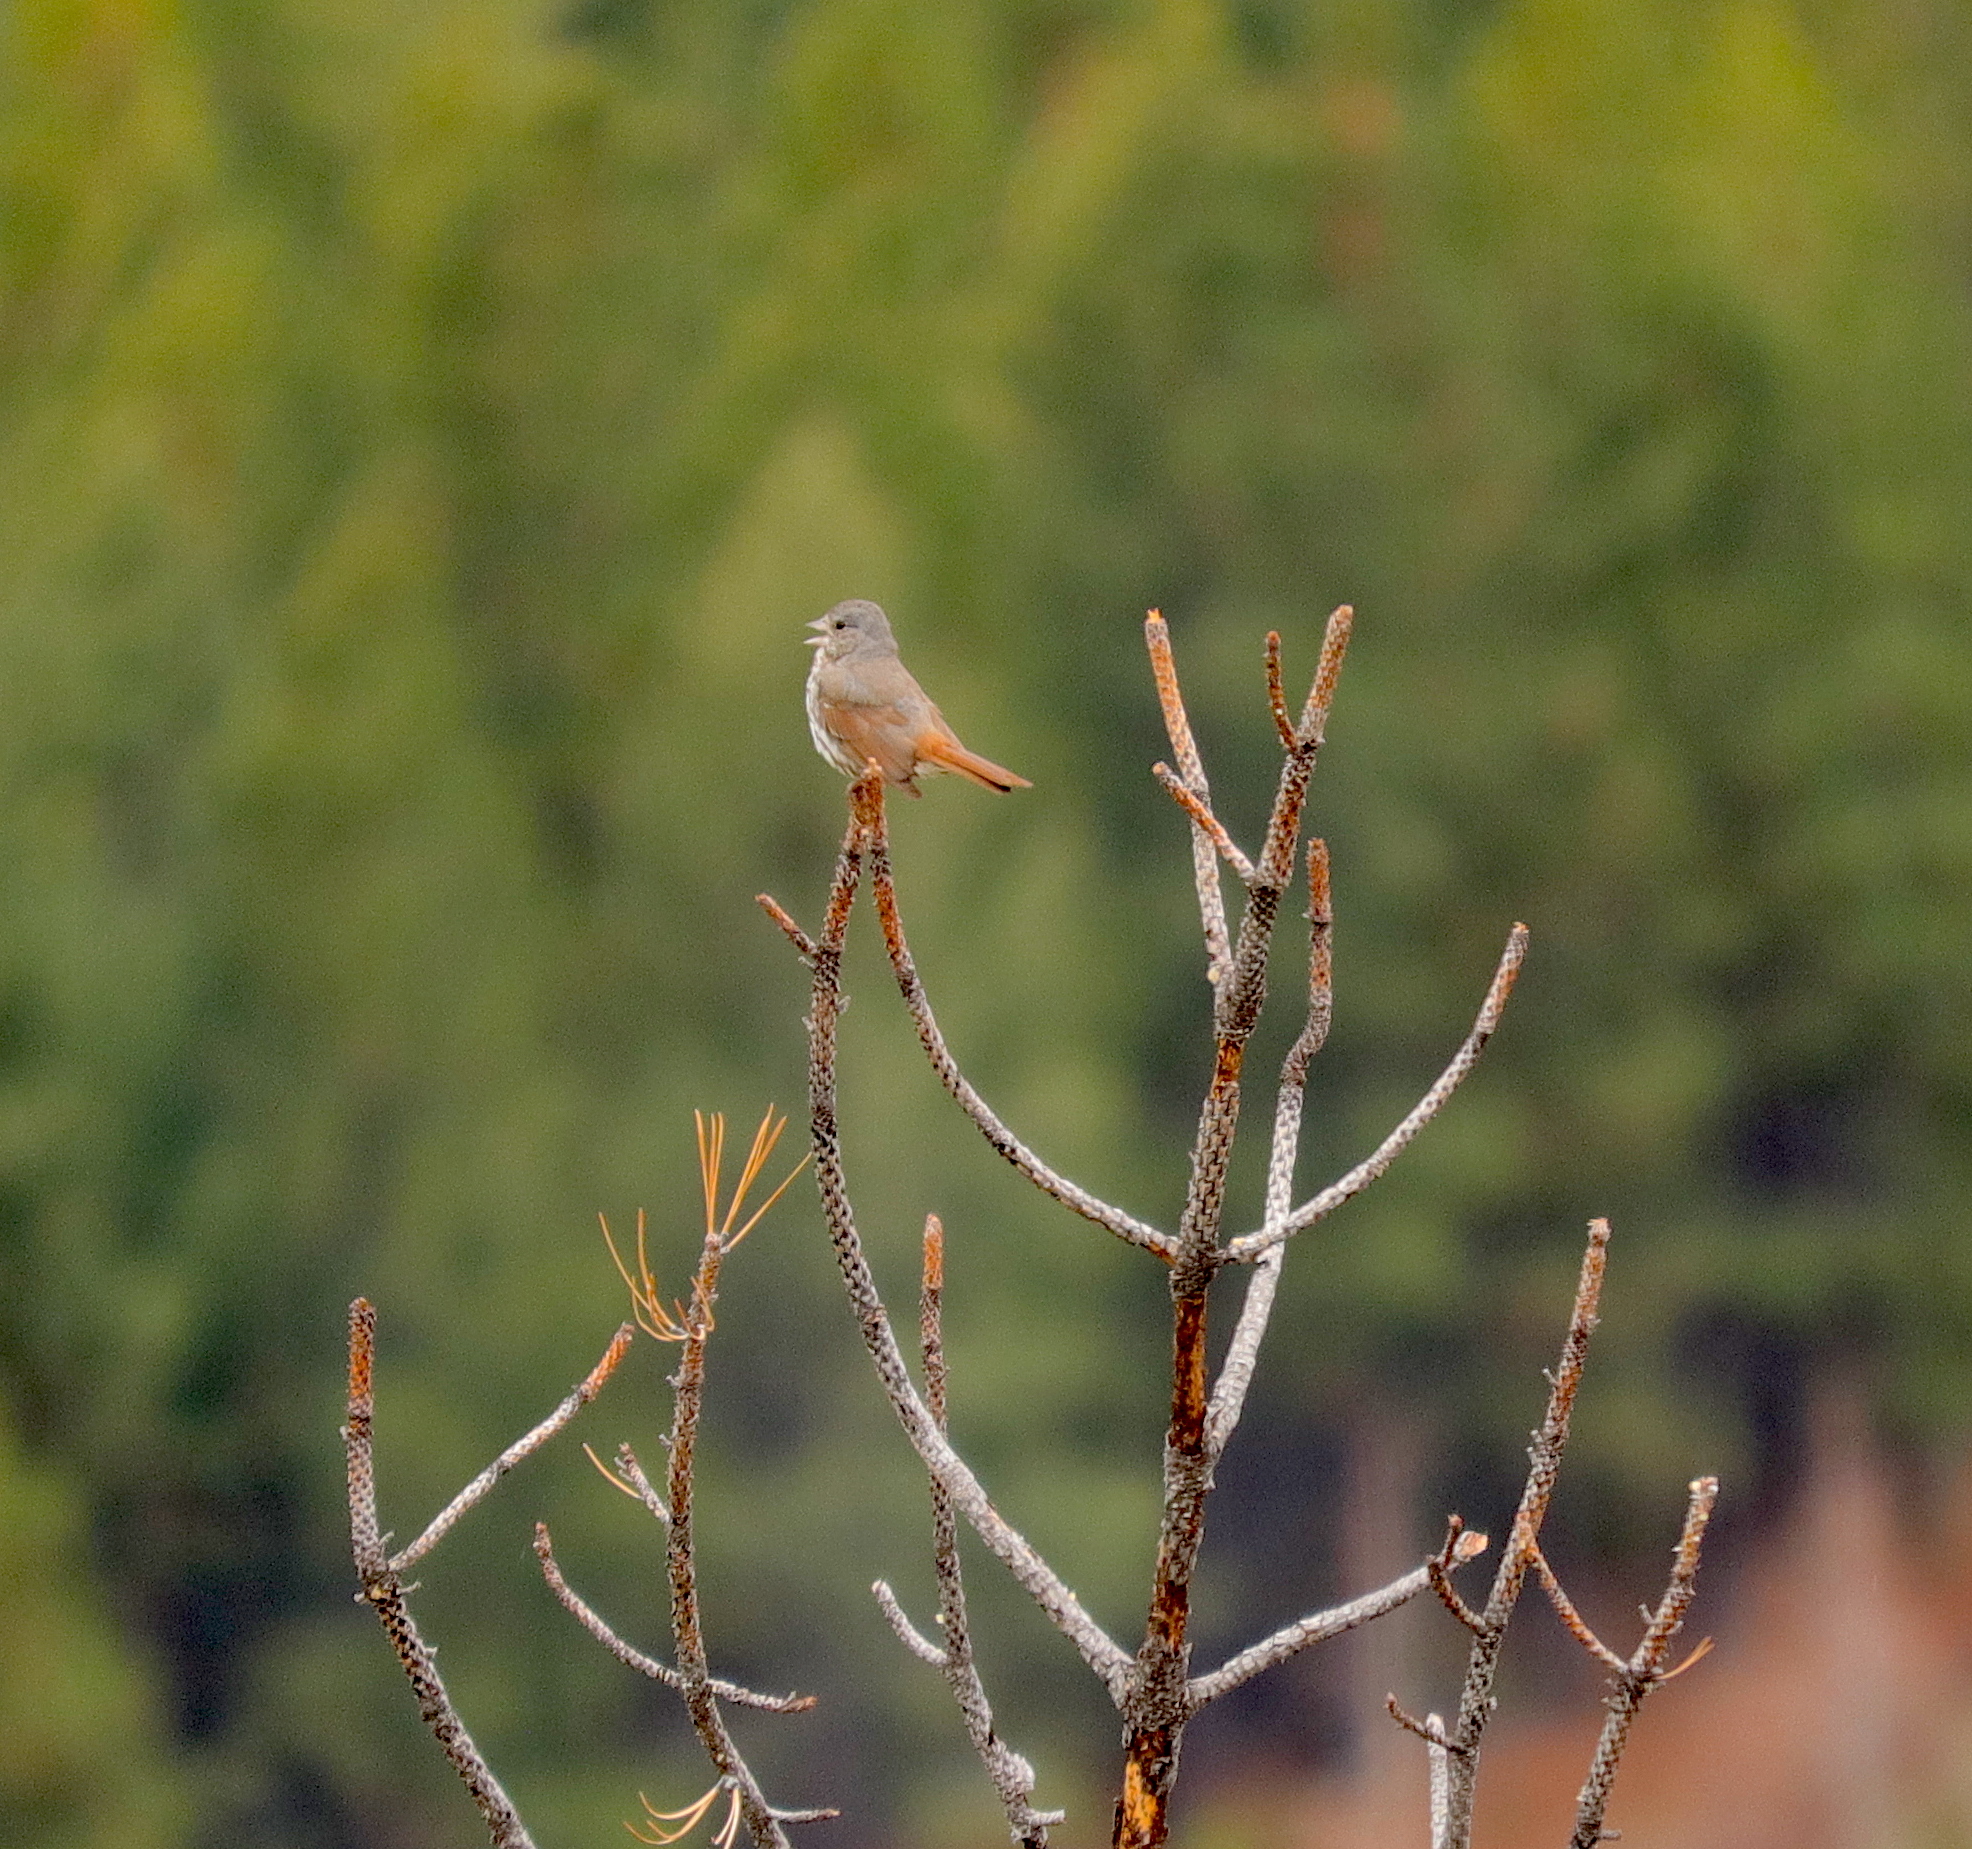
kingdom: Animalia
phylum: Chordata
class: Aves
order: Passeriformes
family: Passerellidae
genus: Passerella
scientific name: Passerella iliaca
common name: Fox sparrow
